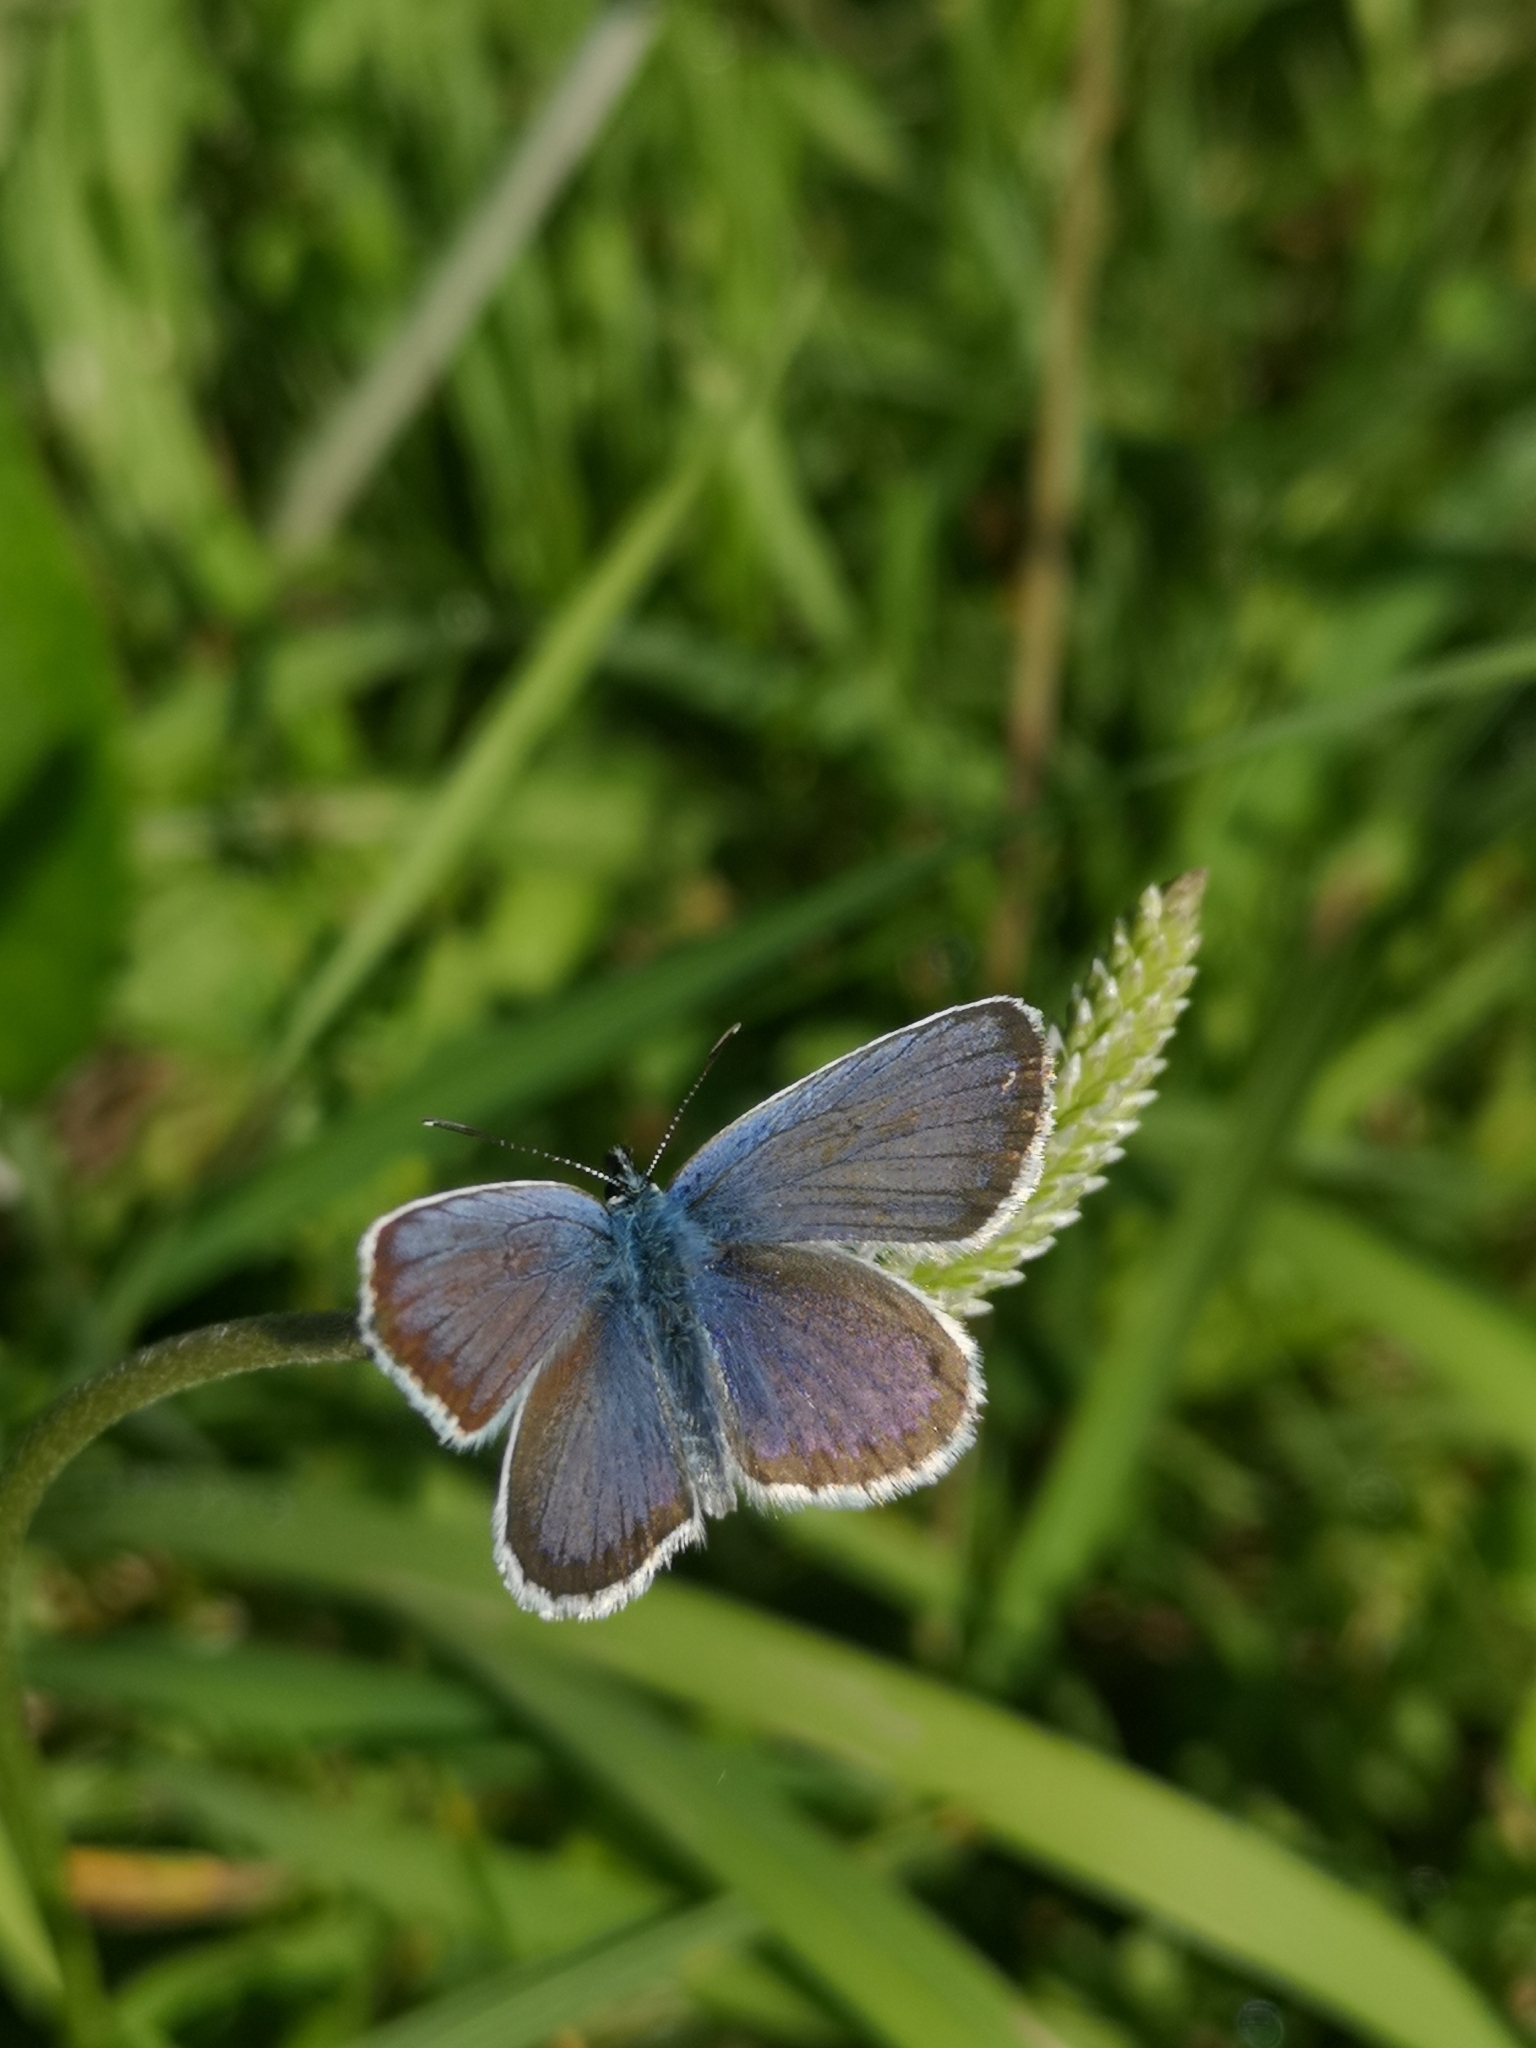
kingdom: Animalia
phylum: Arthropoda
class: Insecta
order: Lepidoptera
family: Lycaenidae
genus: Plebejus
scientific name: Plebejus argus
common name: Silver-studded blue
